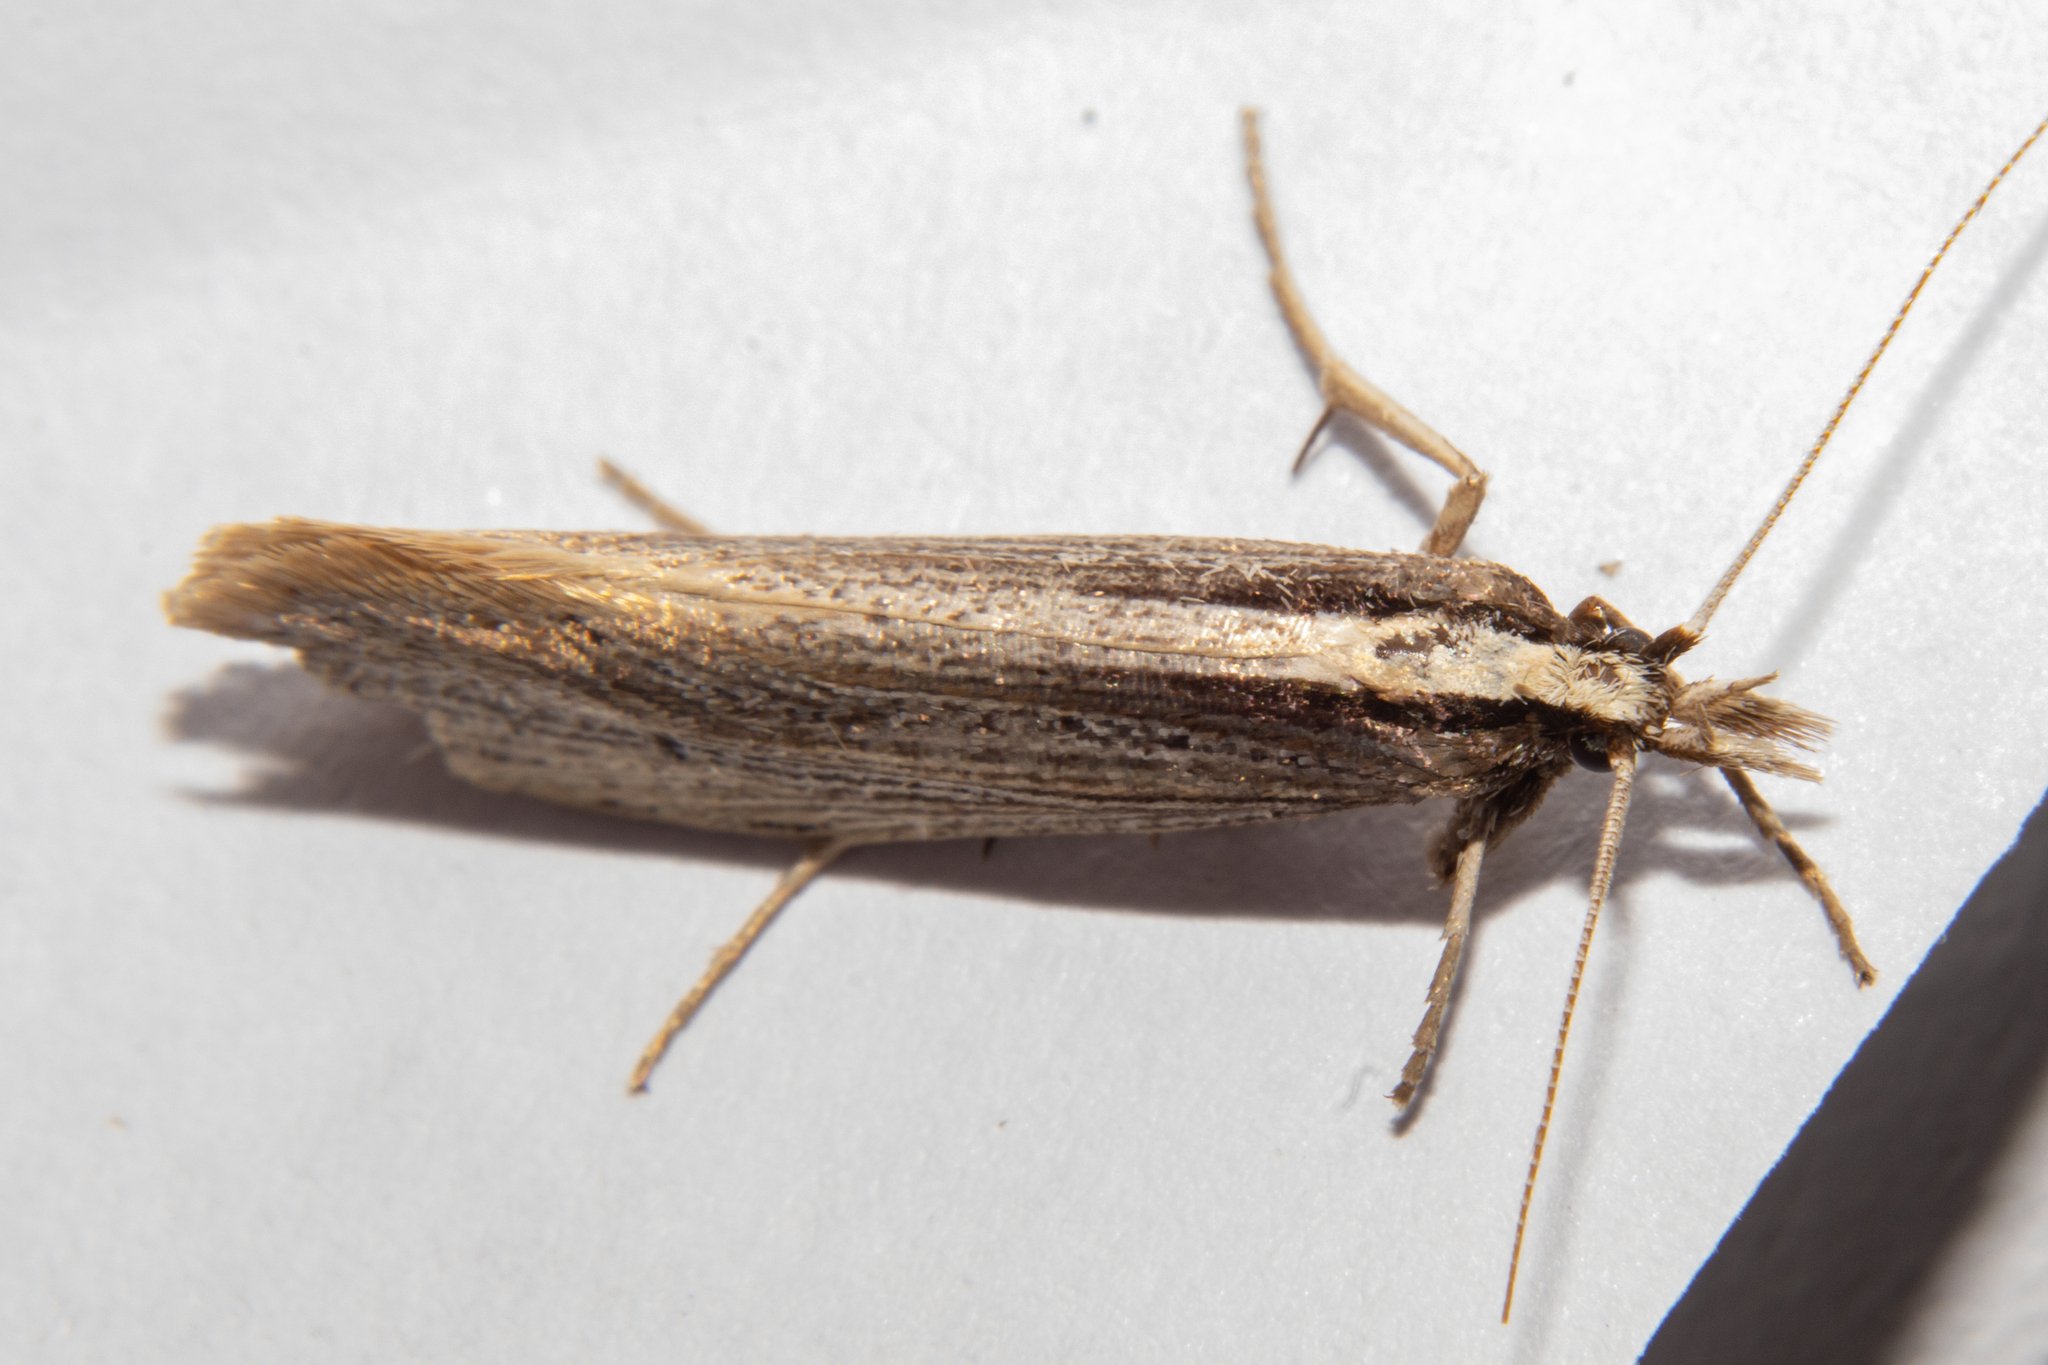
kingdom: Animalia
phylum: Arthropoda
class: Insecta
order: Lepidoptera
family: Plutellidae
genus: Proditrix
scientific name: Proditrix megalynta
